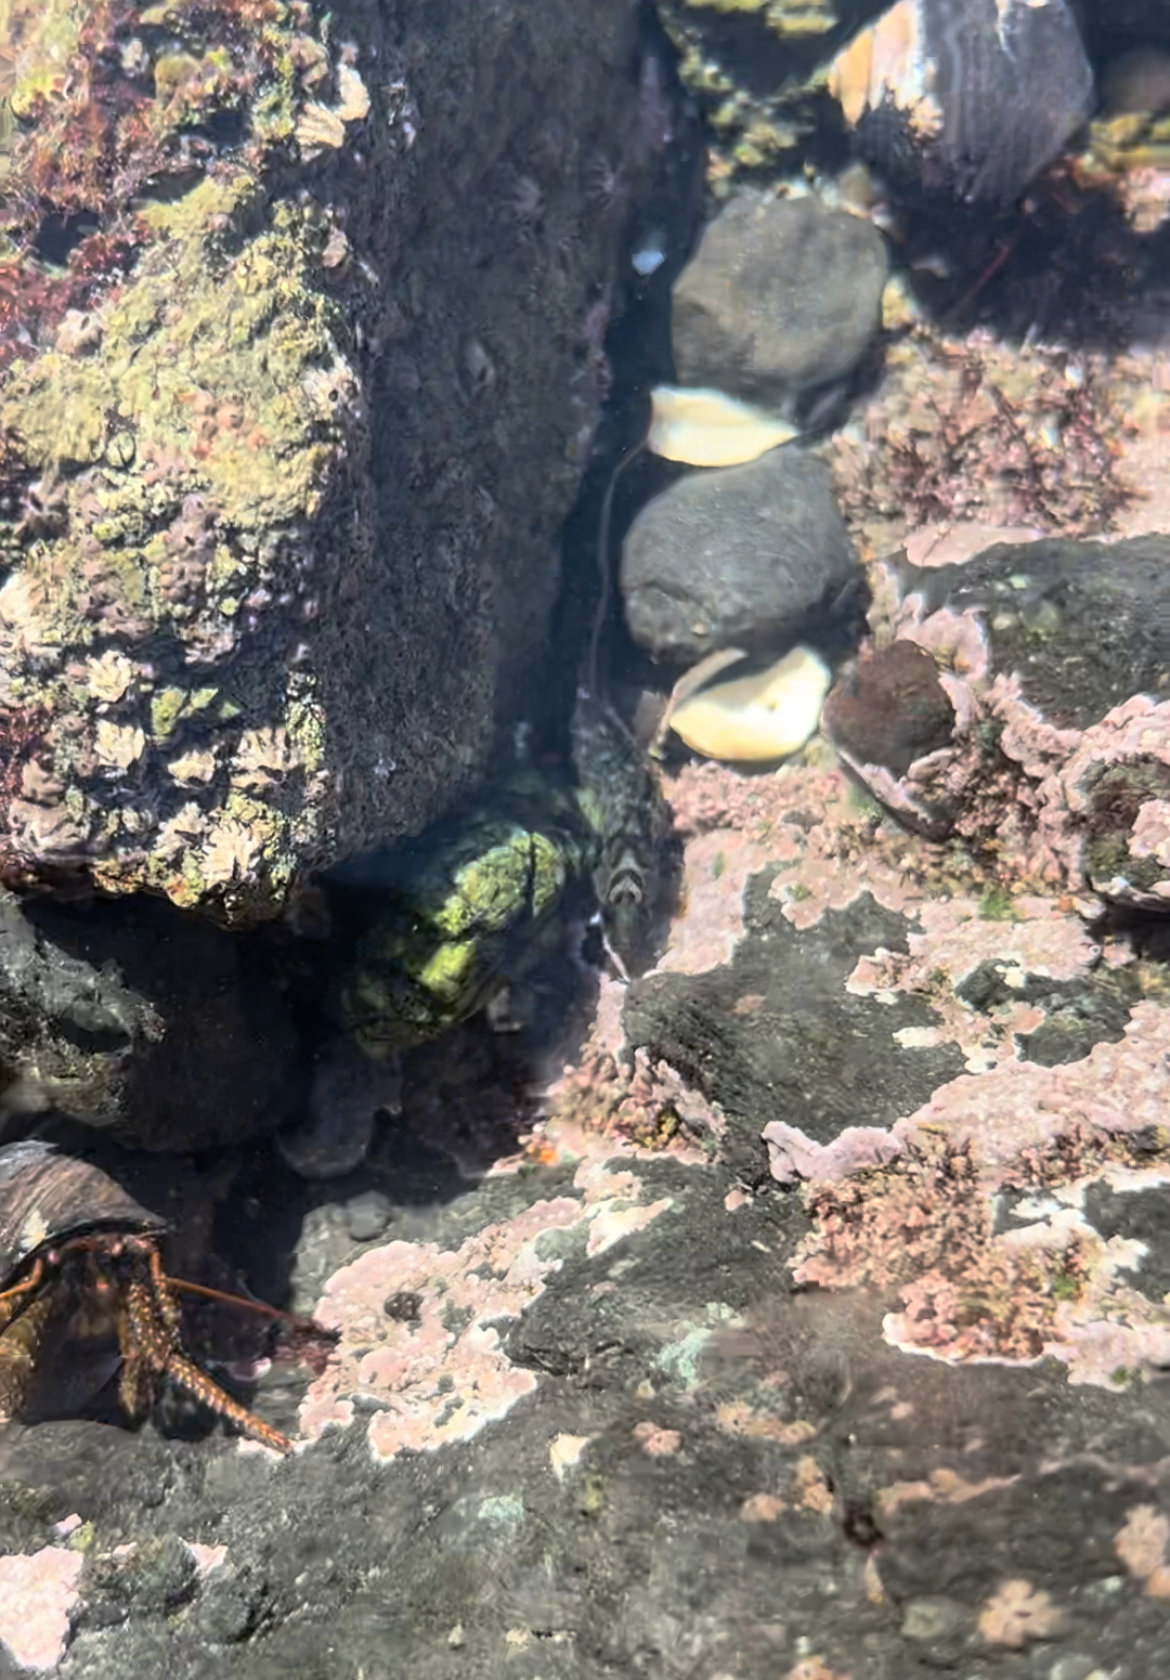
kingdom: Animalia
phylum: Chordata
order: Perciformes
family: Stichaeidae
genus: Cebidichthys
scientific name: Cebidichthys violaceus
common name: Monkeyface prickleback
